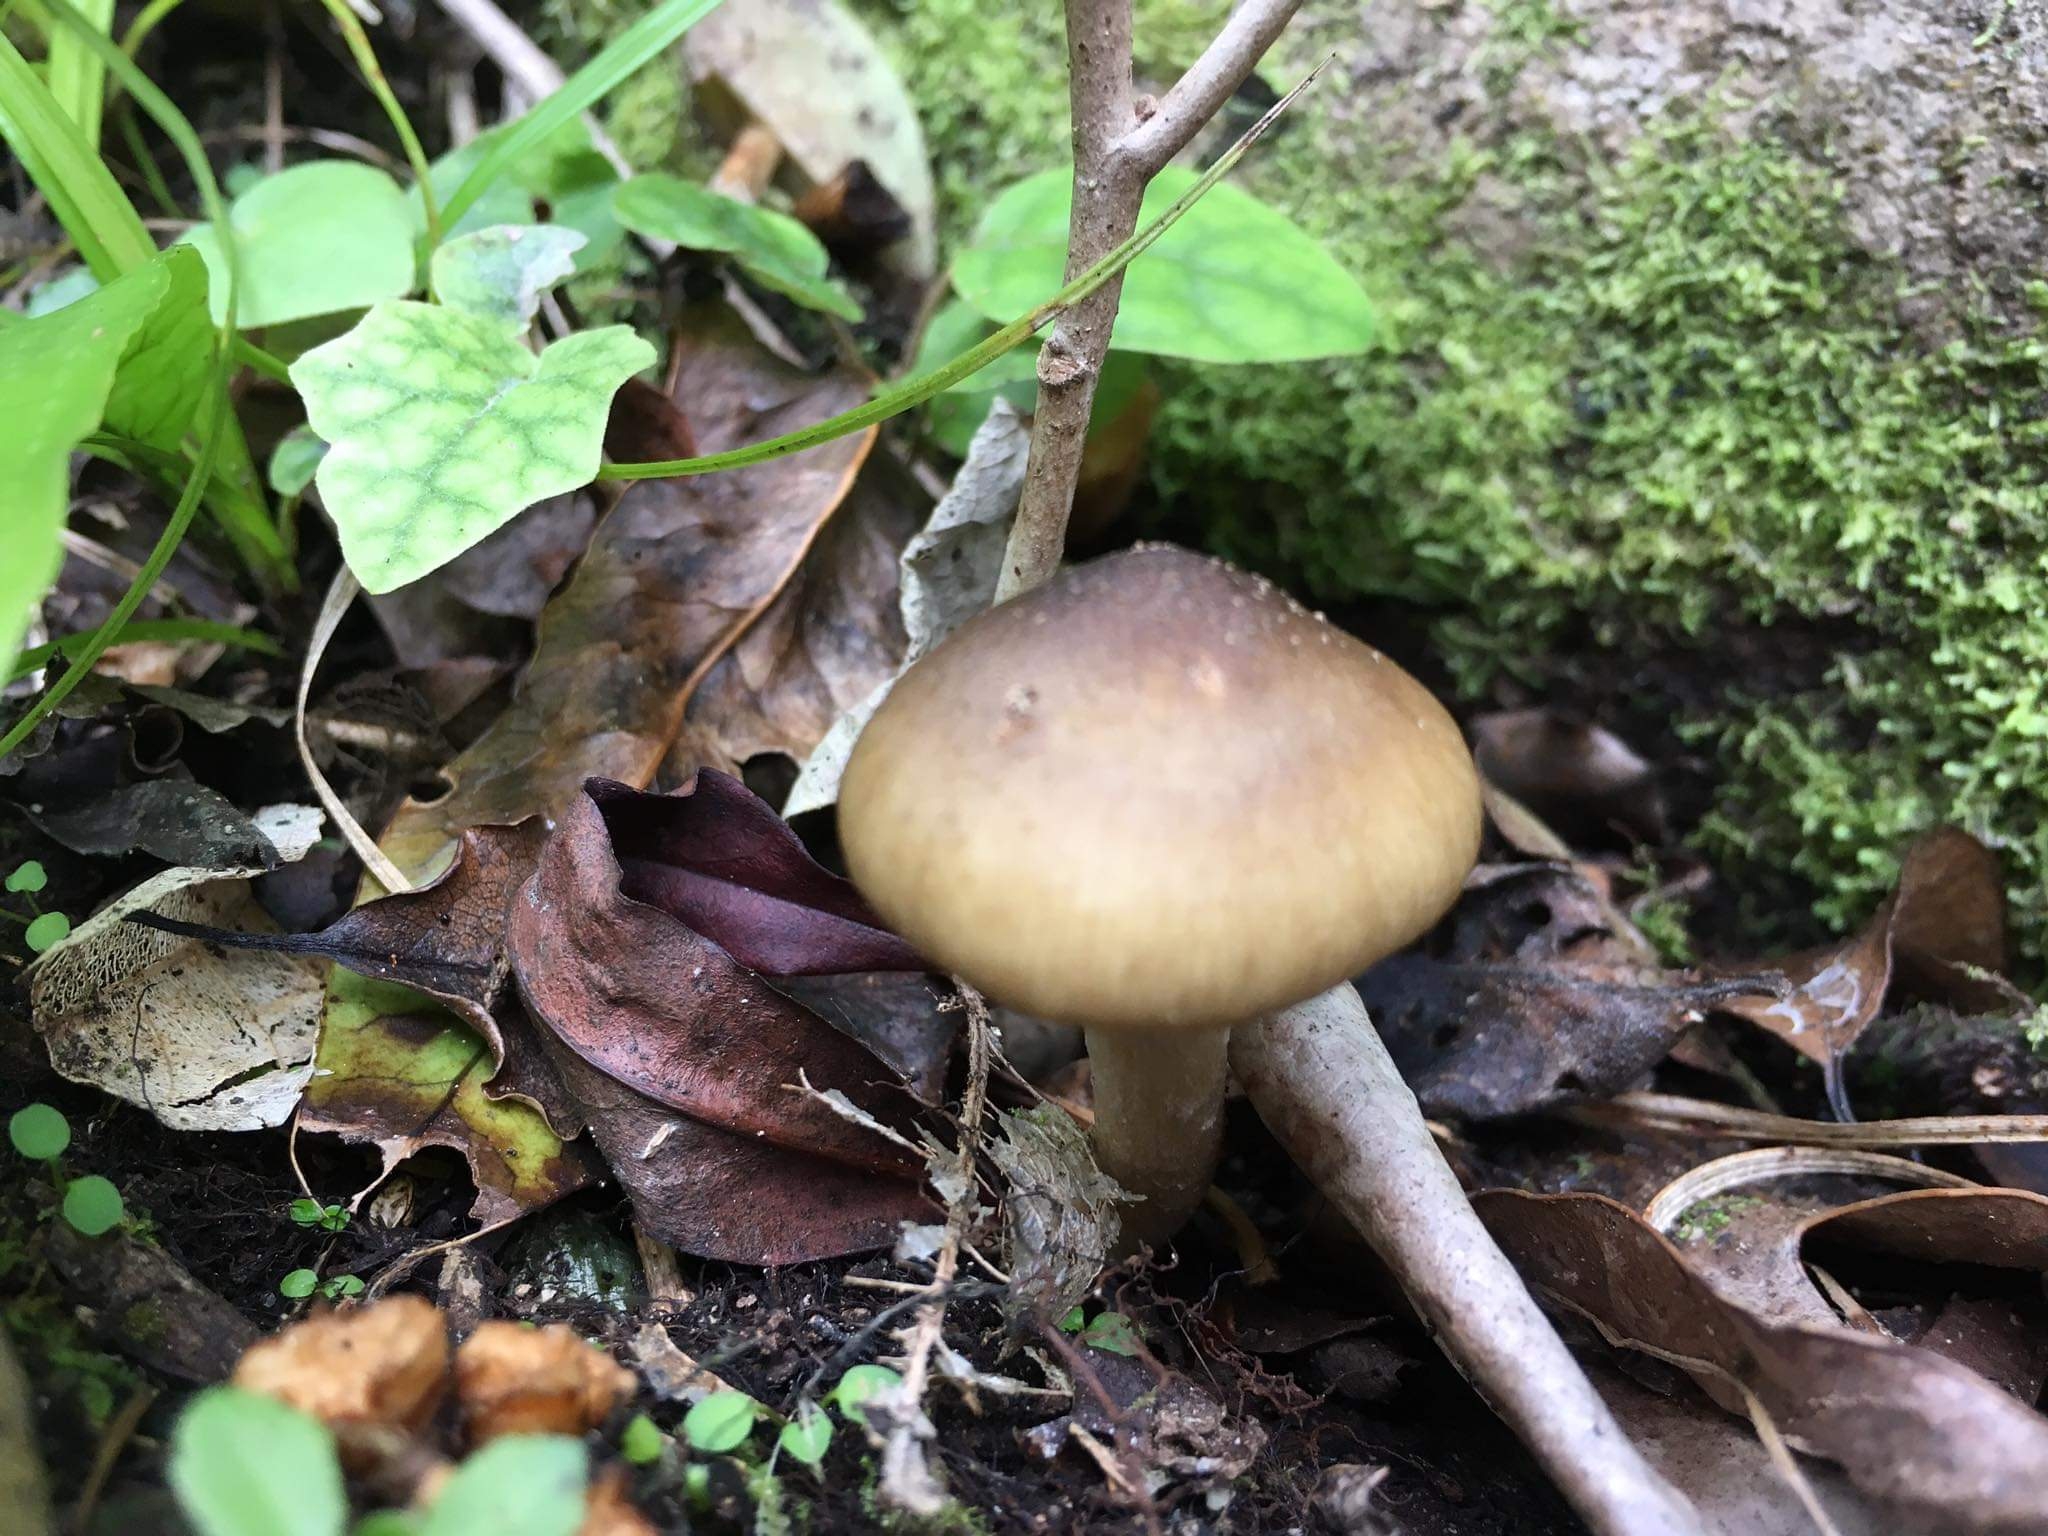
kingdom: Fungi
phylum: Basidiomycota
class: Agaricomycetes
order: Agaricales
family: Physalacriaceae
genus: Armillaria
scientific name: Armillaria novae-zelandiae
